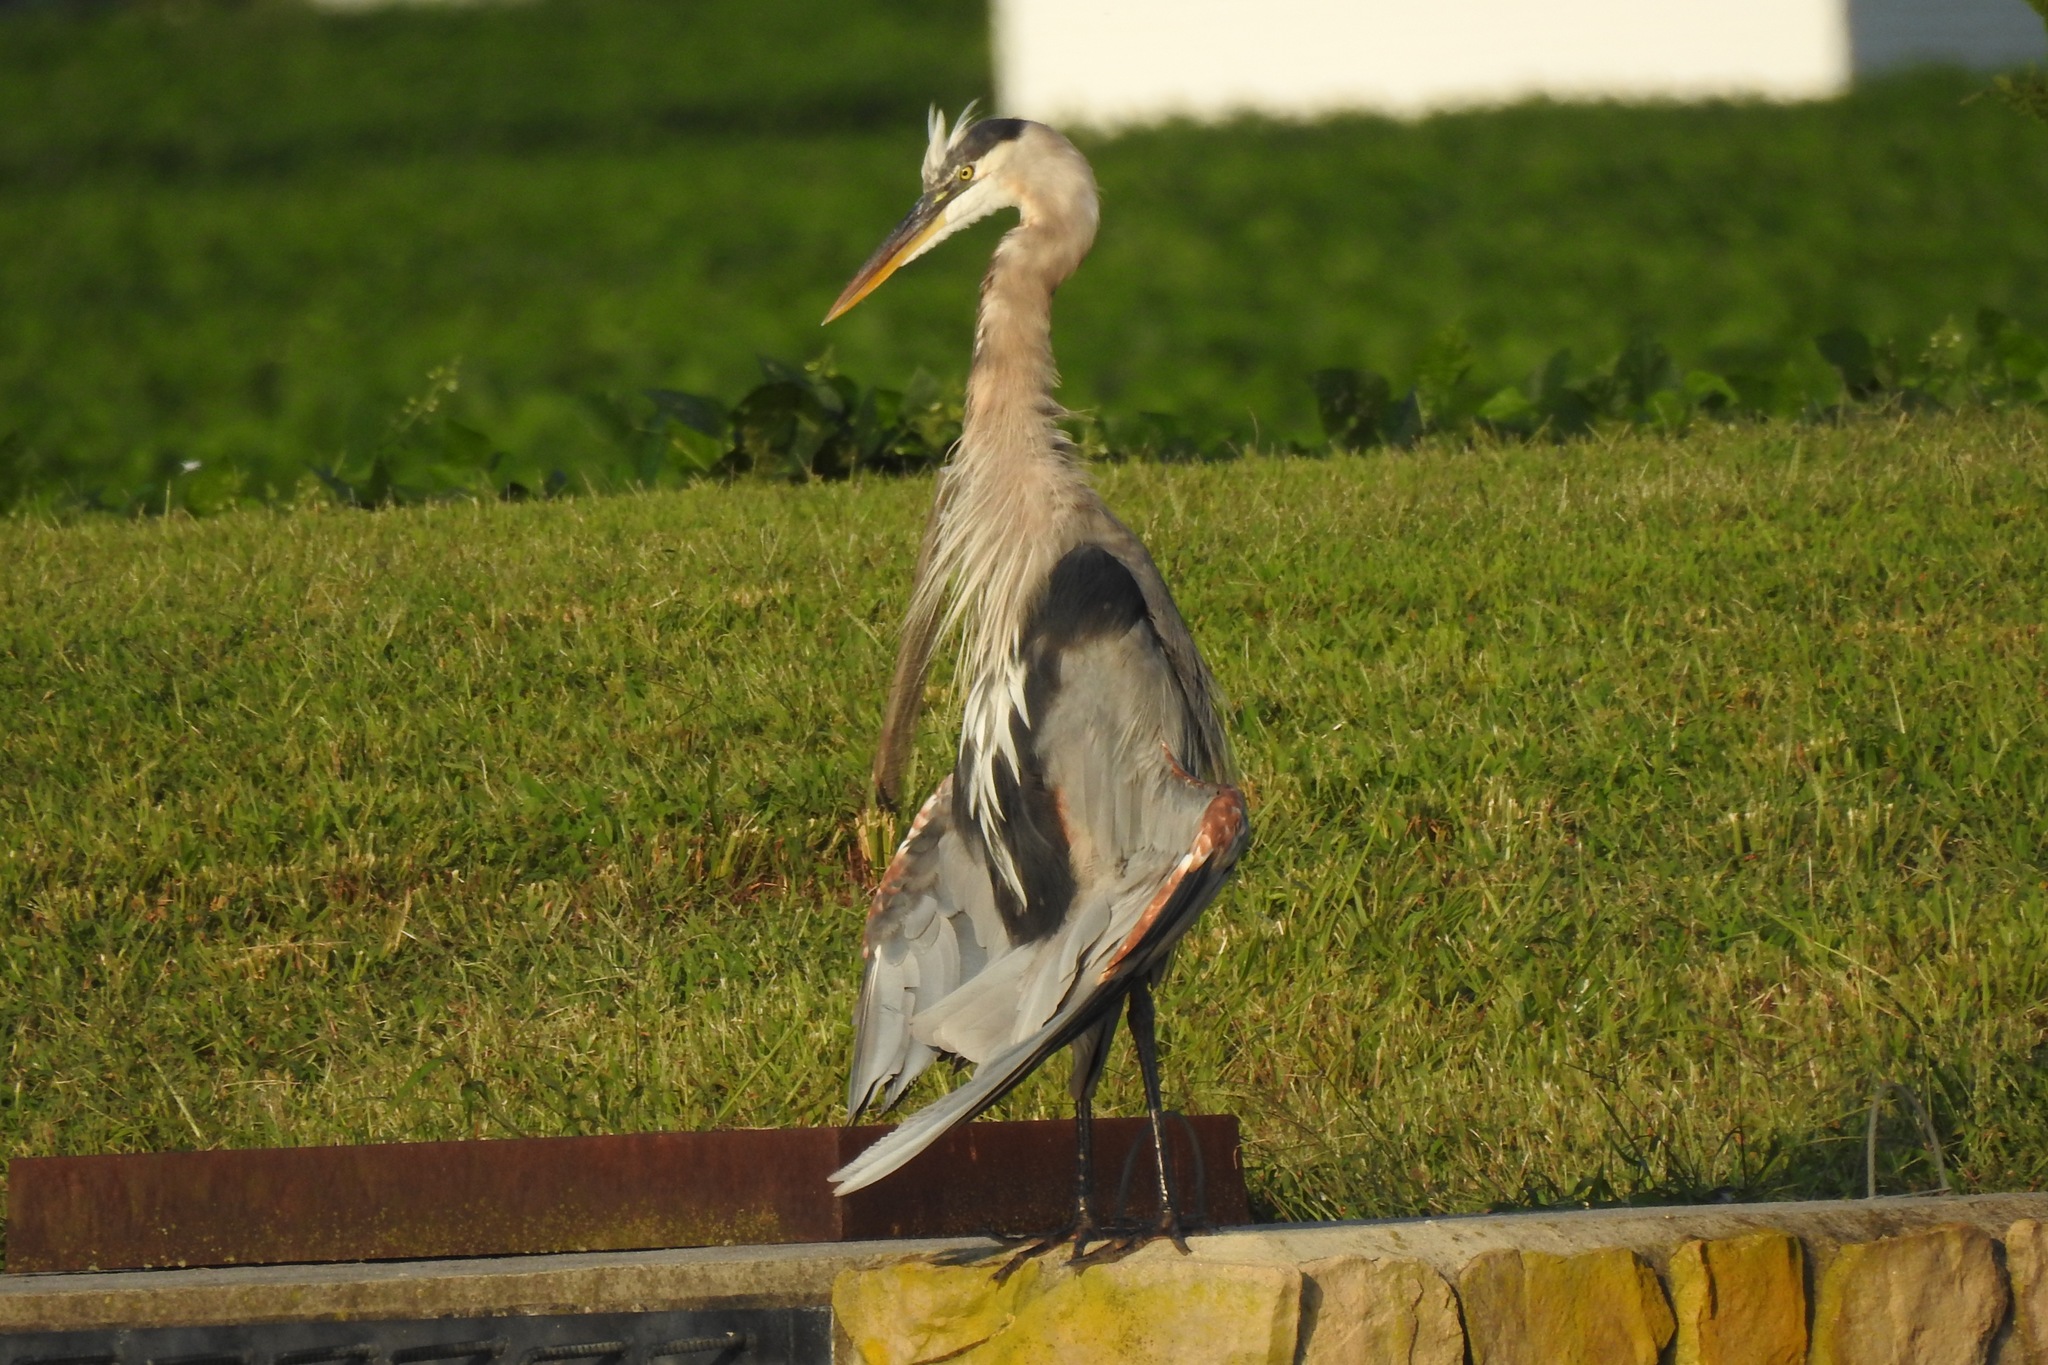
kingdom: Animalia
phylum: Chordata
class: Aves
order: Pelecaniformes
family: Ardeidae
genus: Ardea
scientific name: Ardea herodias
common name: Great blue heron
